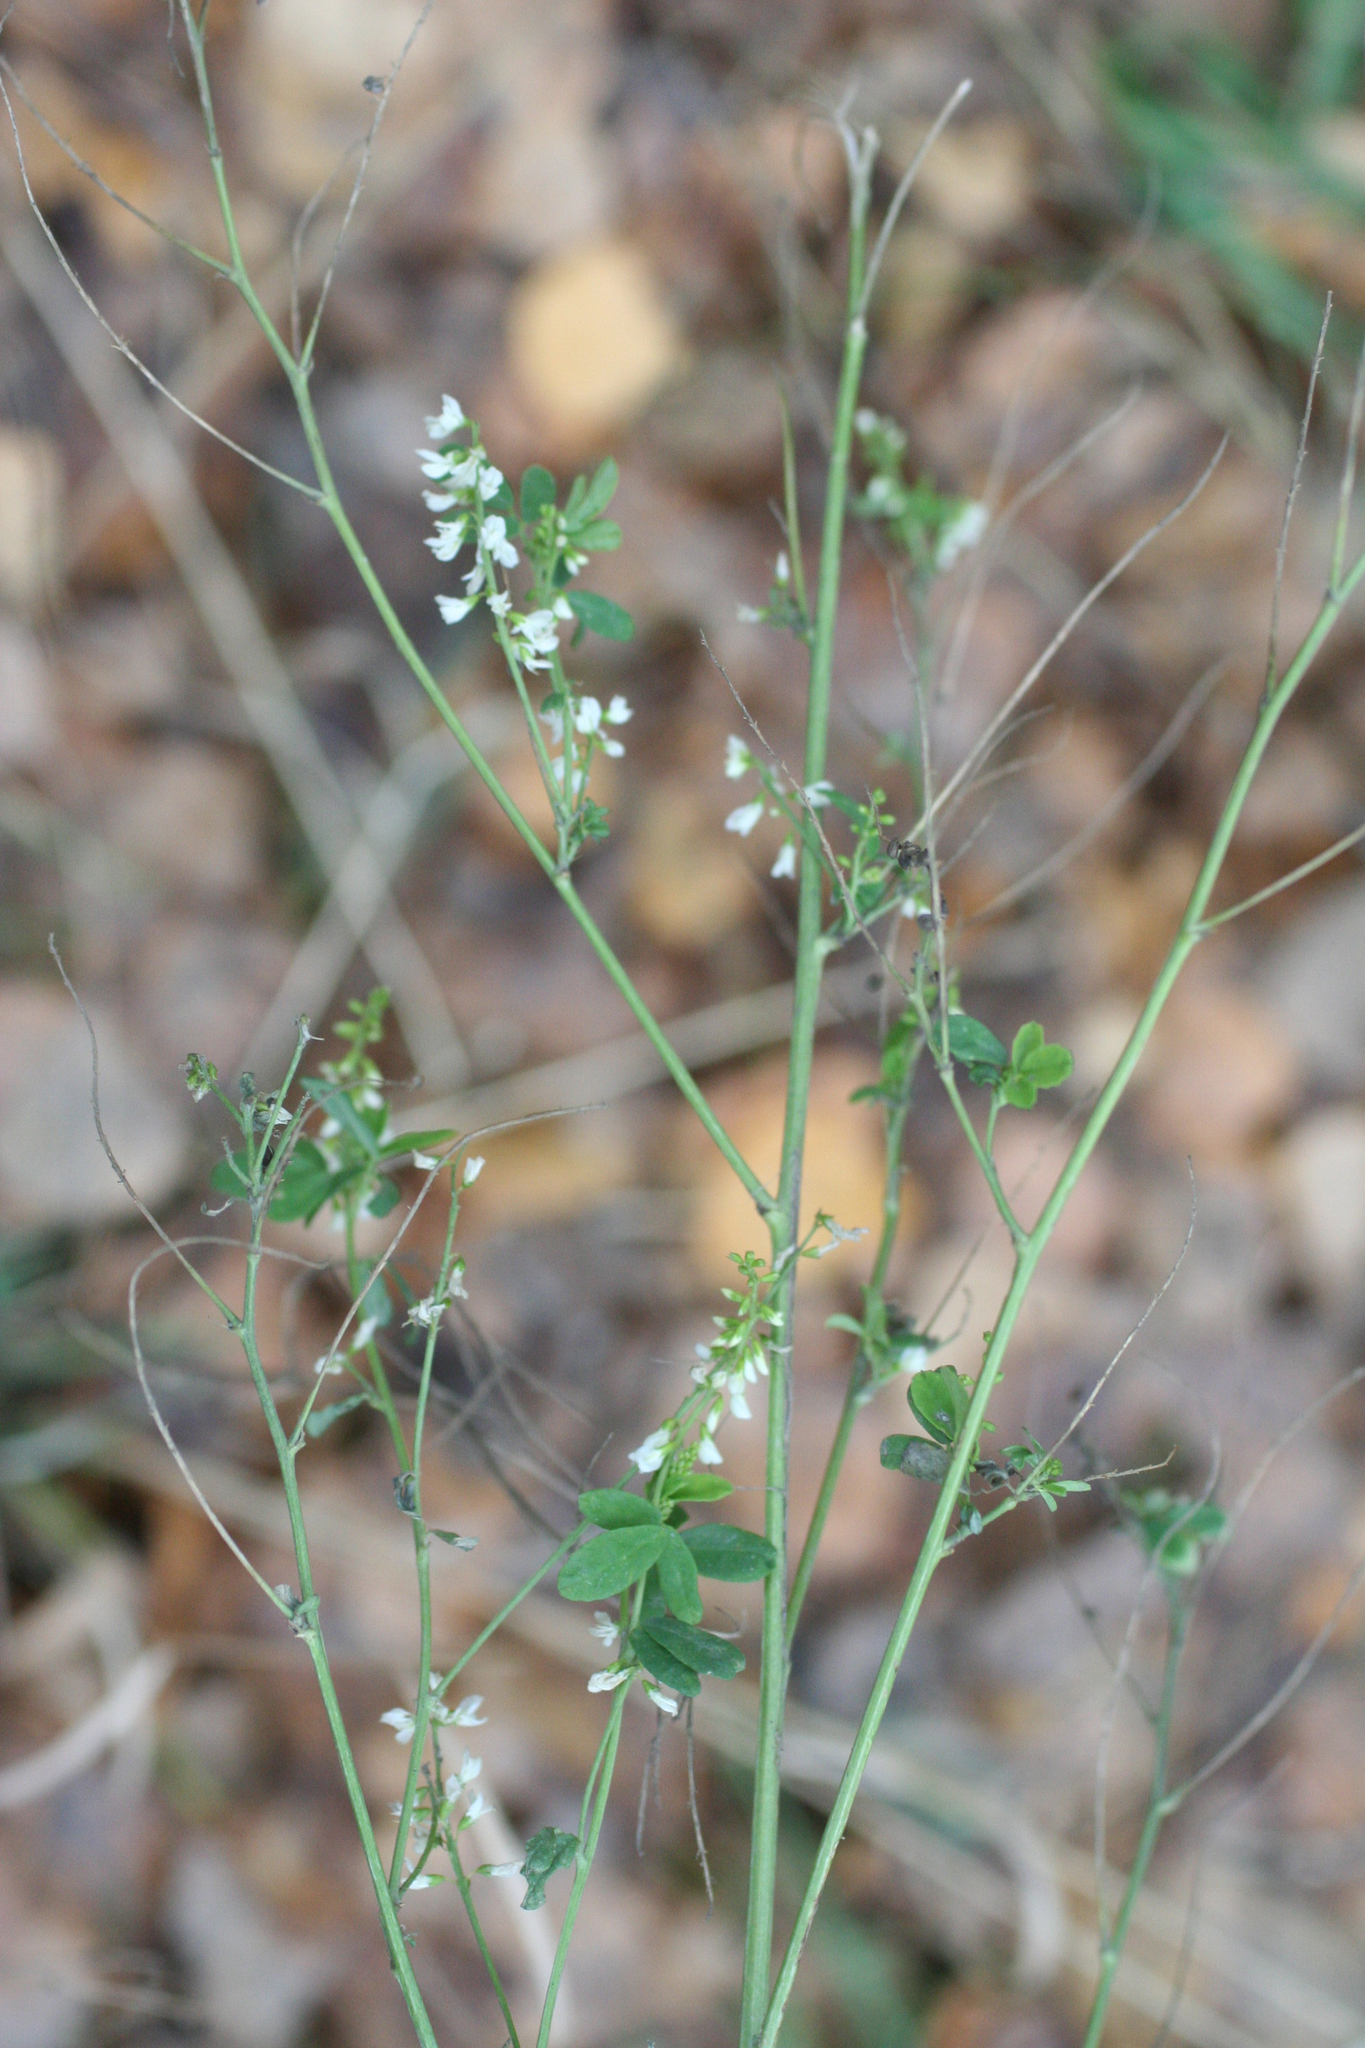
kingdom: Plantae
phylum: Tracheophyta
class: Magnoliopsida
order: Fabales
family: Fabaceae
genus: Melilotus
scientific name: Melilotus albus
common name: White melilot
